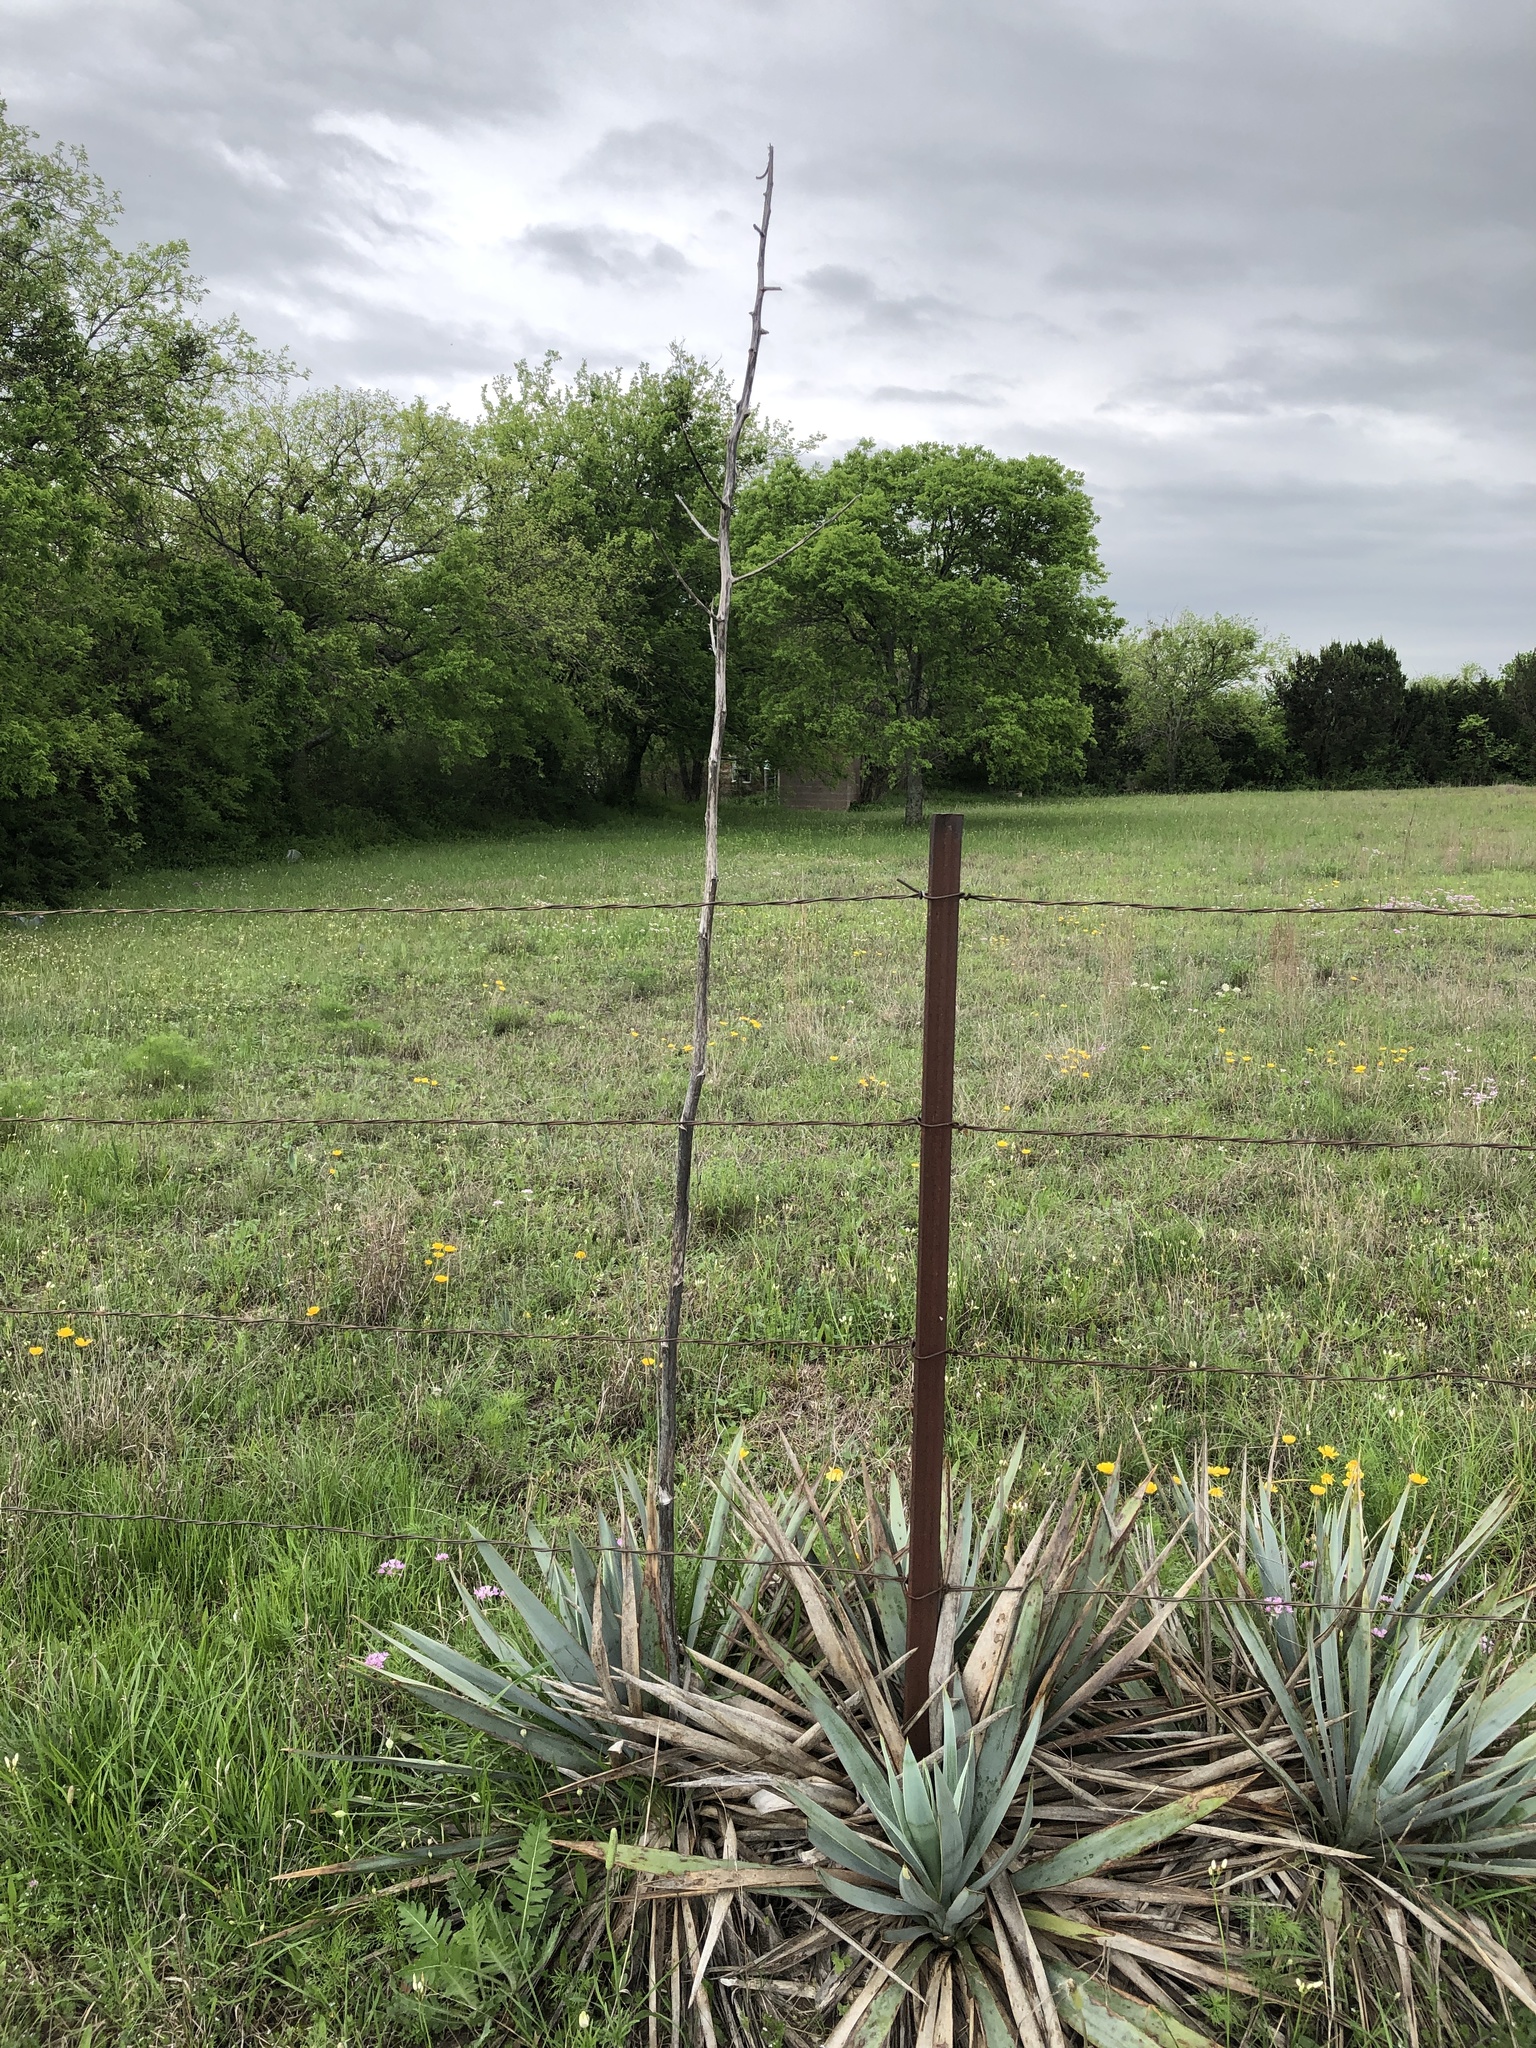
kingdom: Plantae
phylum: Tracheophyta
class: Liliopsida
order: Asparagales
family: Asparagaceae
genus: Yucca
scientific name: Yucca pallida
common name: Pale leaf yucca
